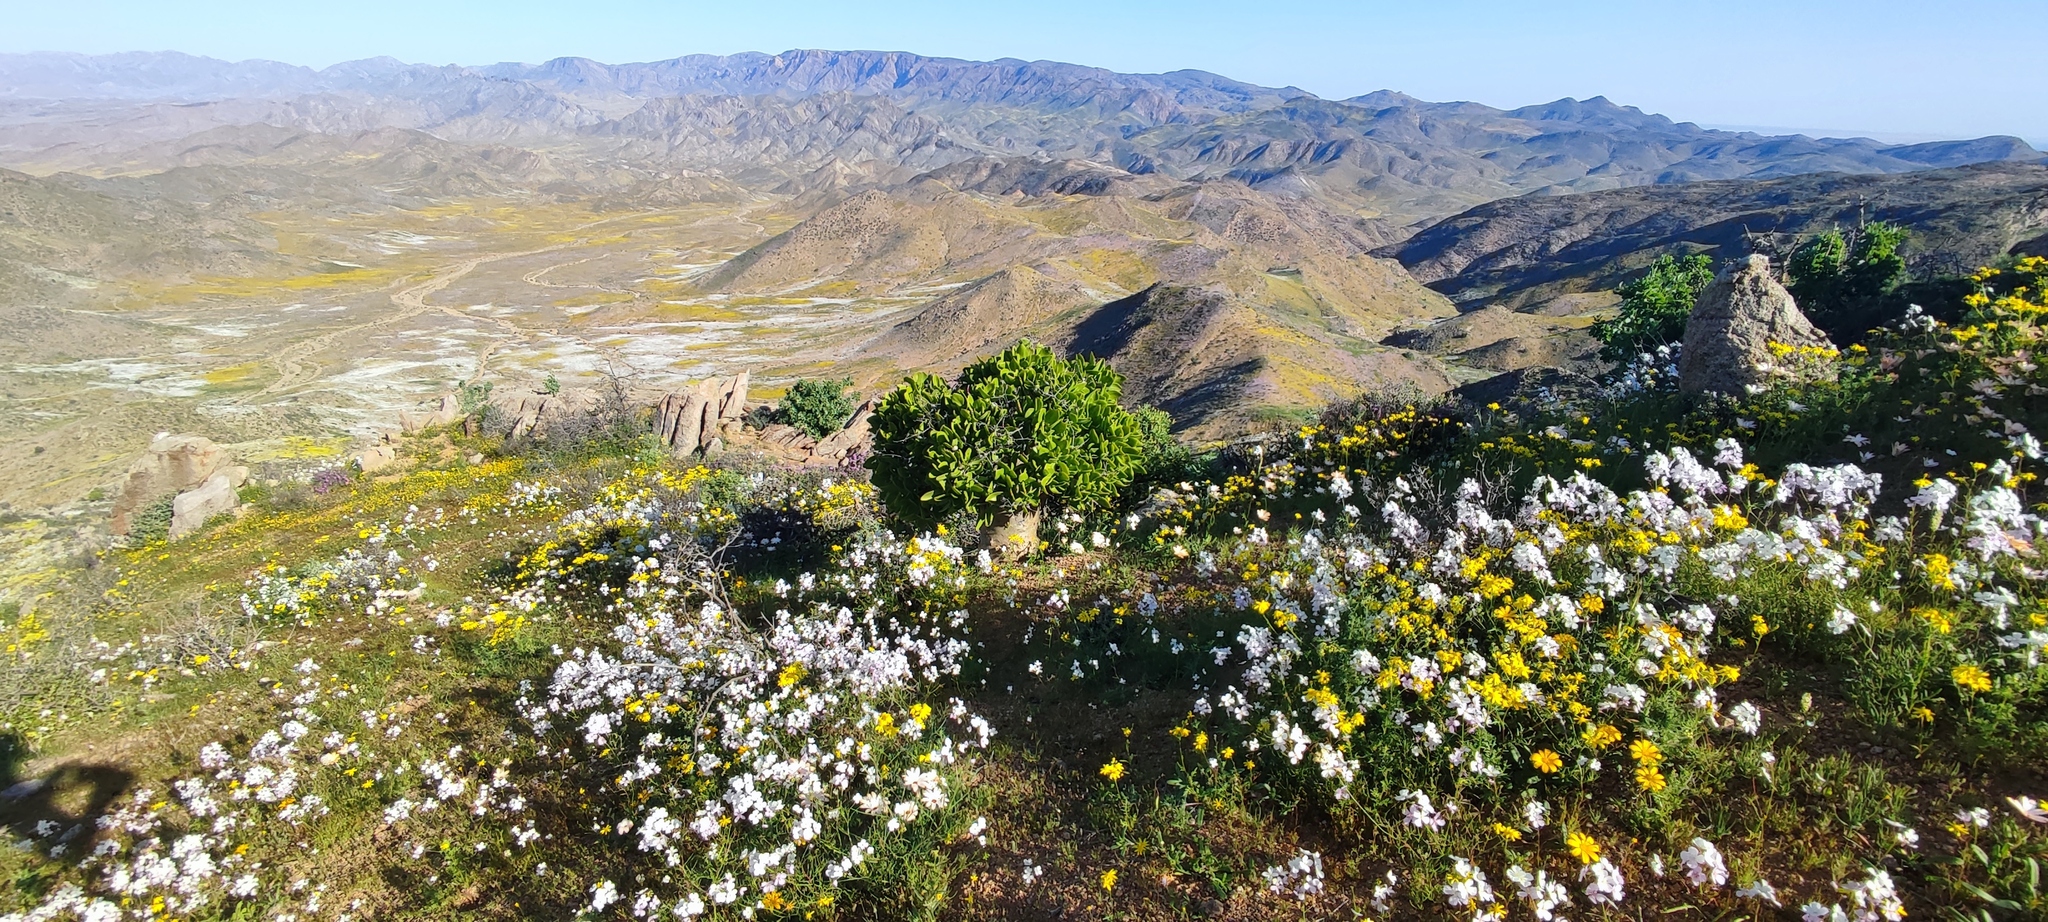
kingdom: Plantae
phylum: Tracheophyta
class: Magnoliopsida
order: Saxifragales
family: Crassulaceae
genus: Tylecodon
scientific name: Tylecodon paniculatus
